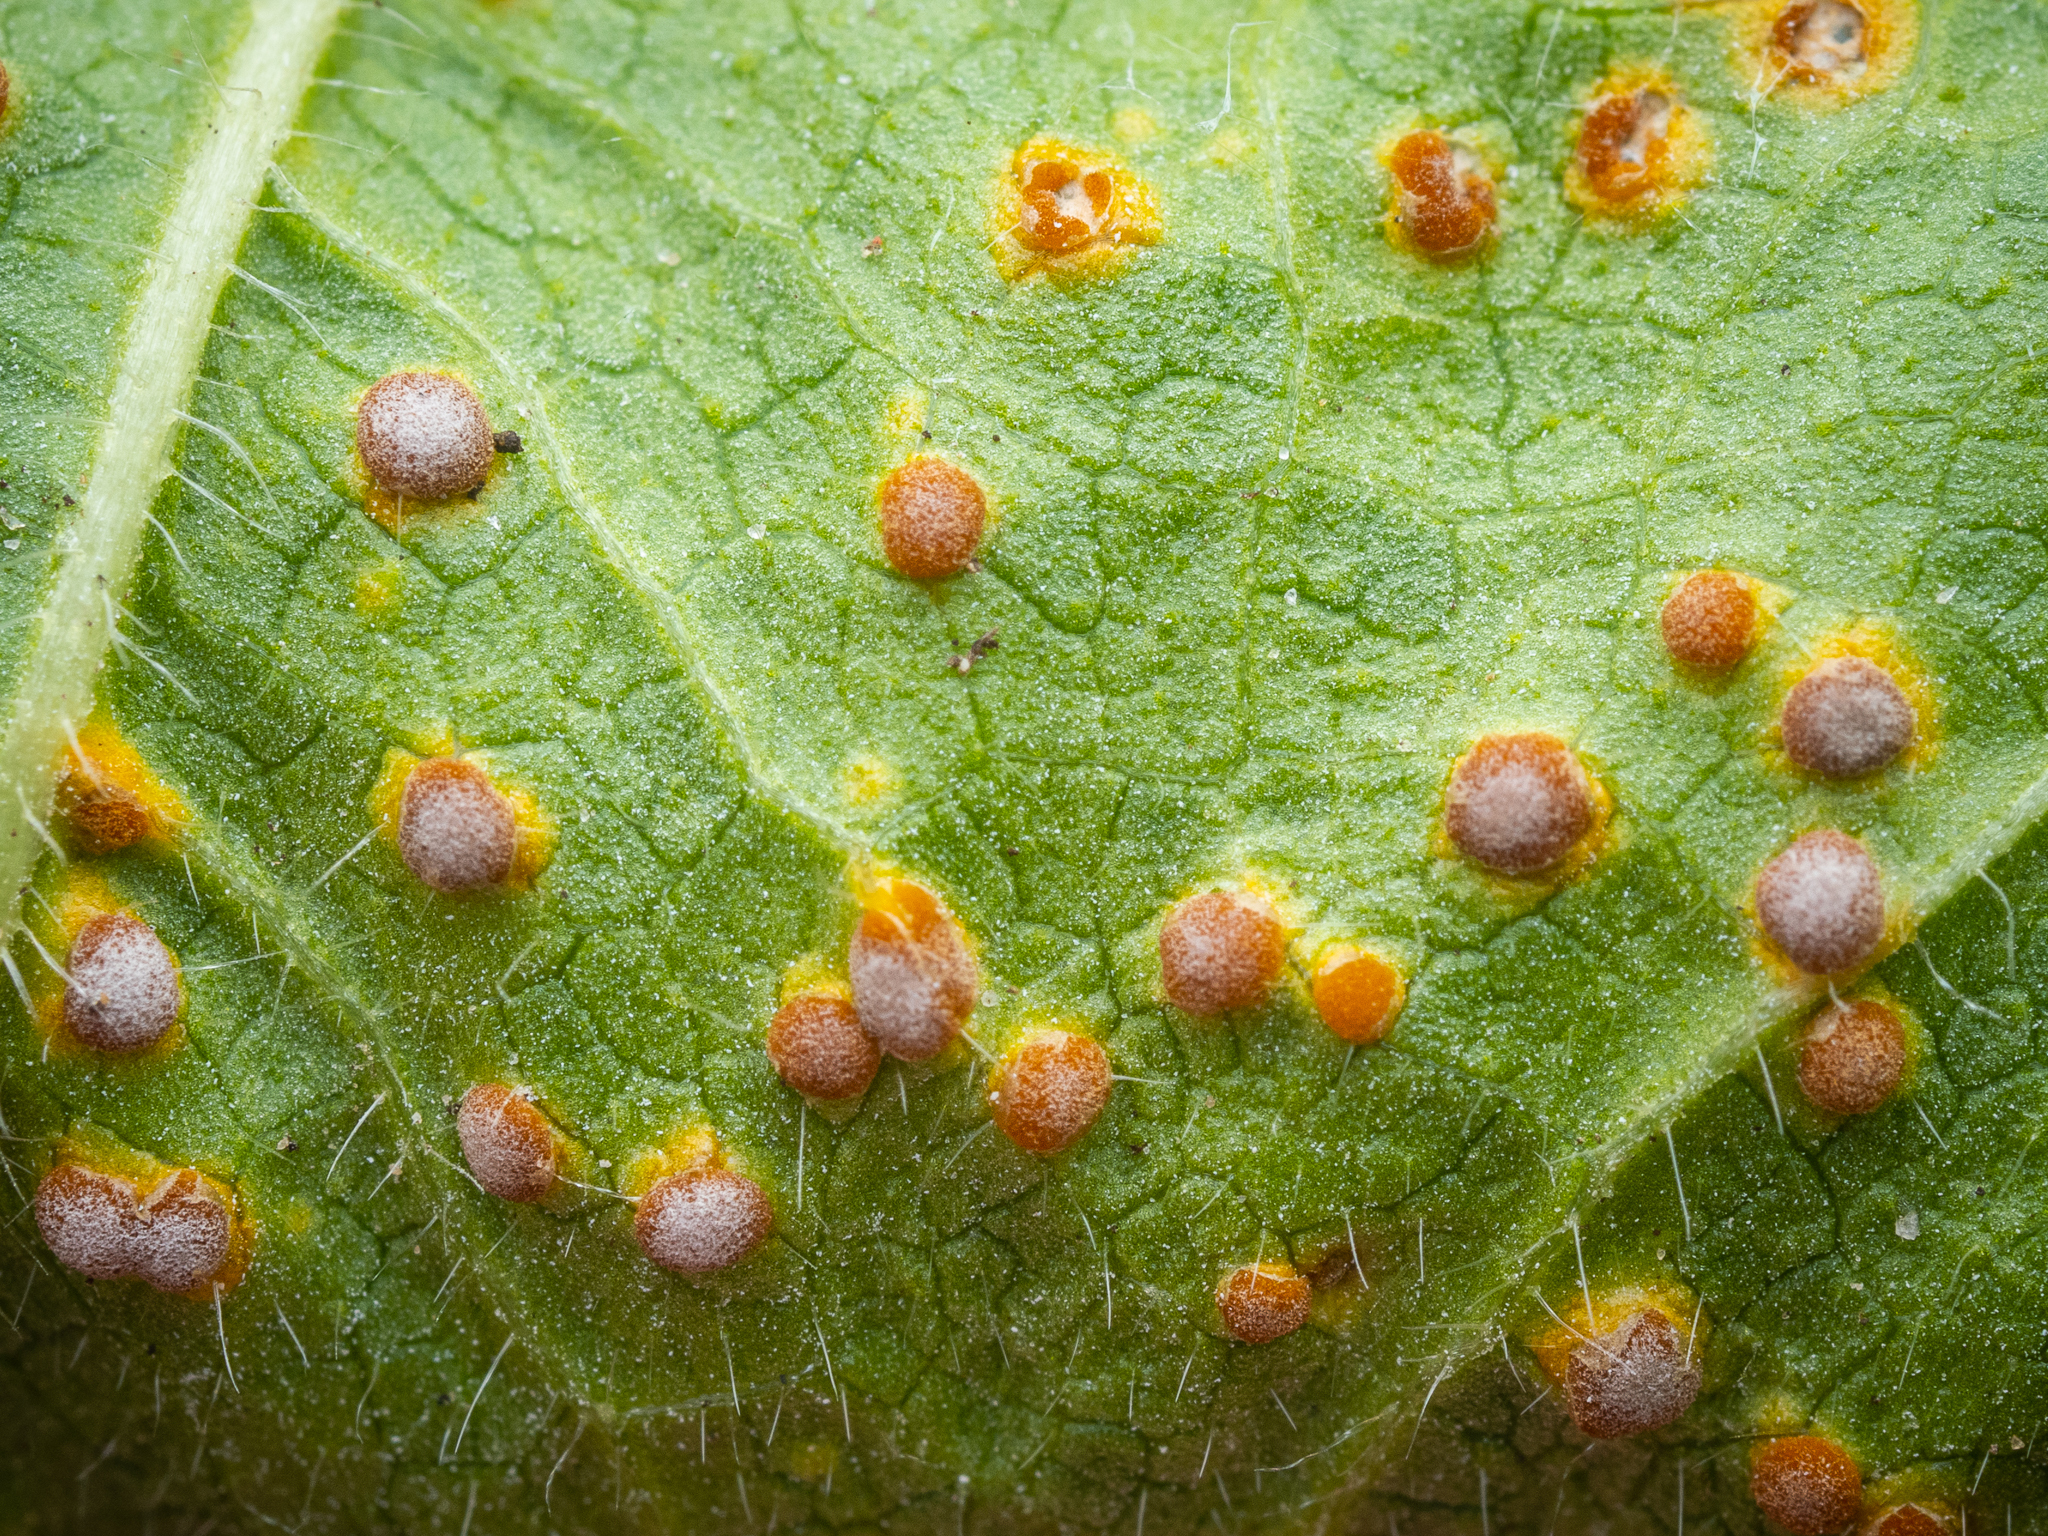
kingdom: Fungi
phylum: Basidiomycota
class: Pucciniomycetes
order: Pucciniales
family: Pucciniaceae
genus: Puccinia
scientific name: Puccinia malvacearum
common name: Hollyhock rust
